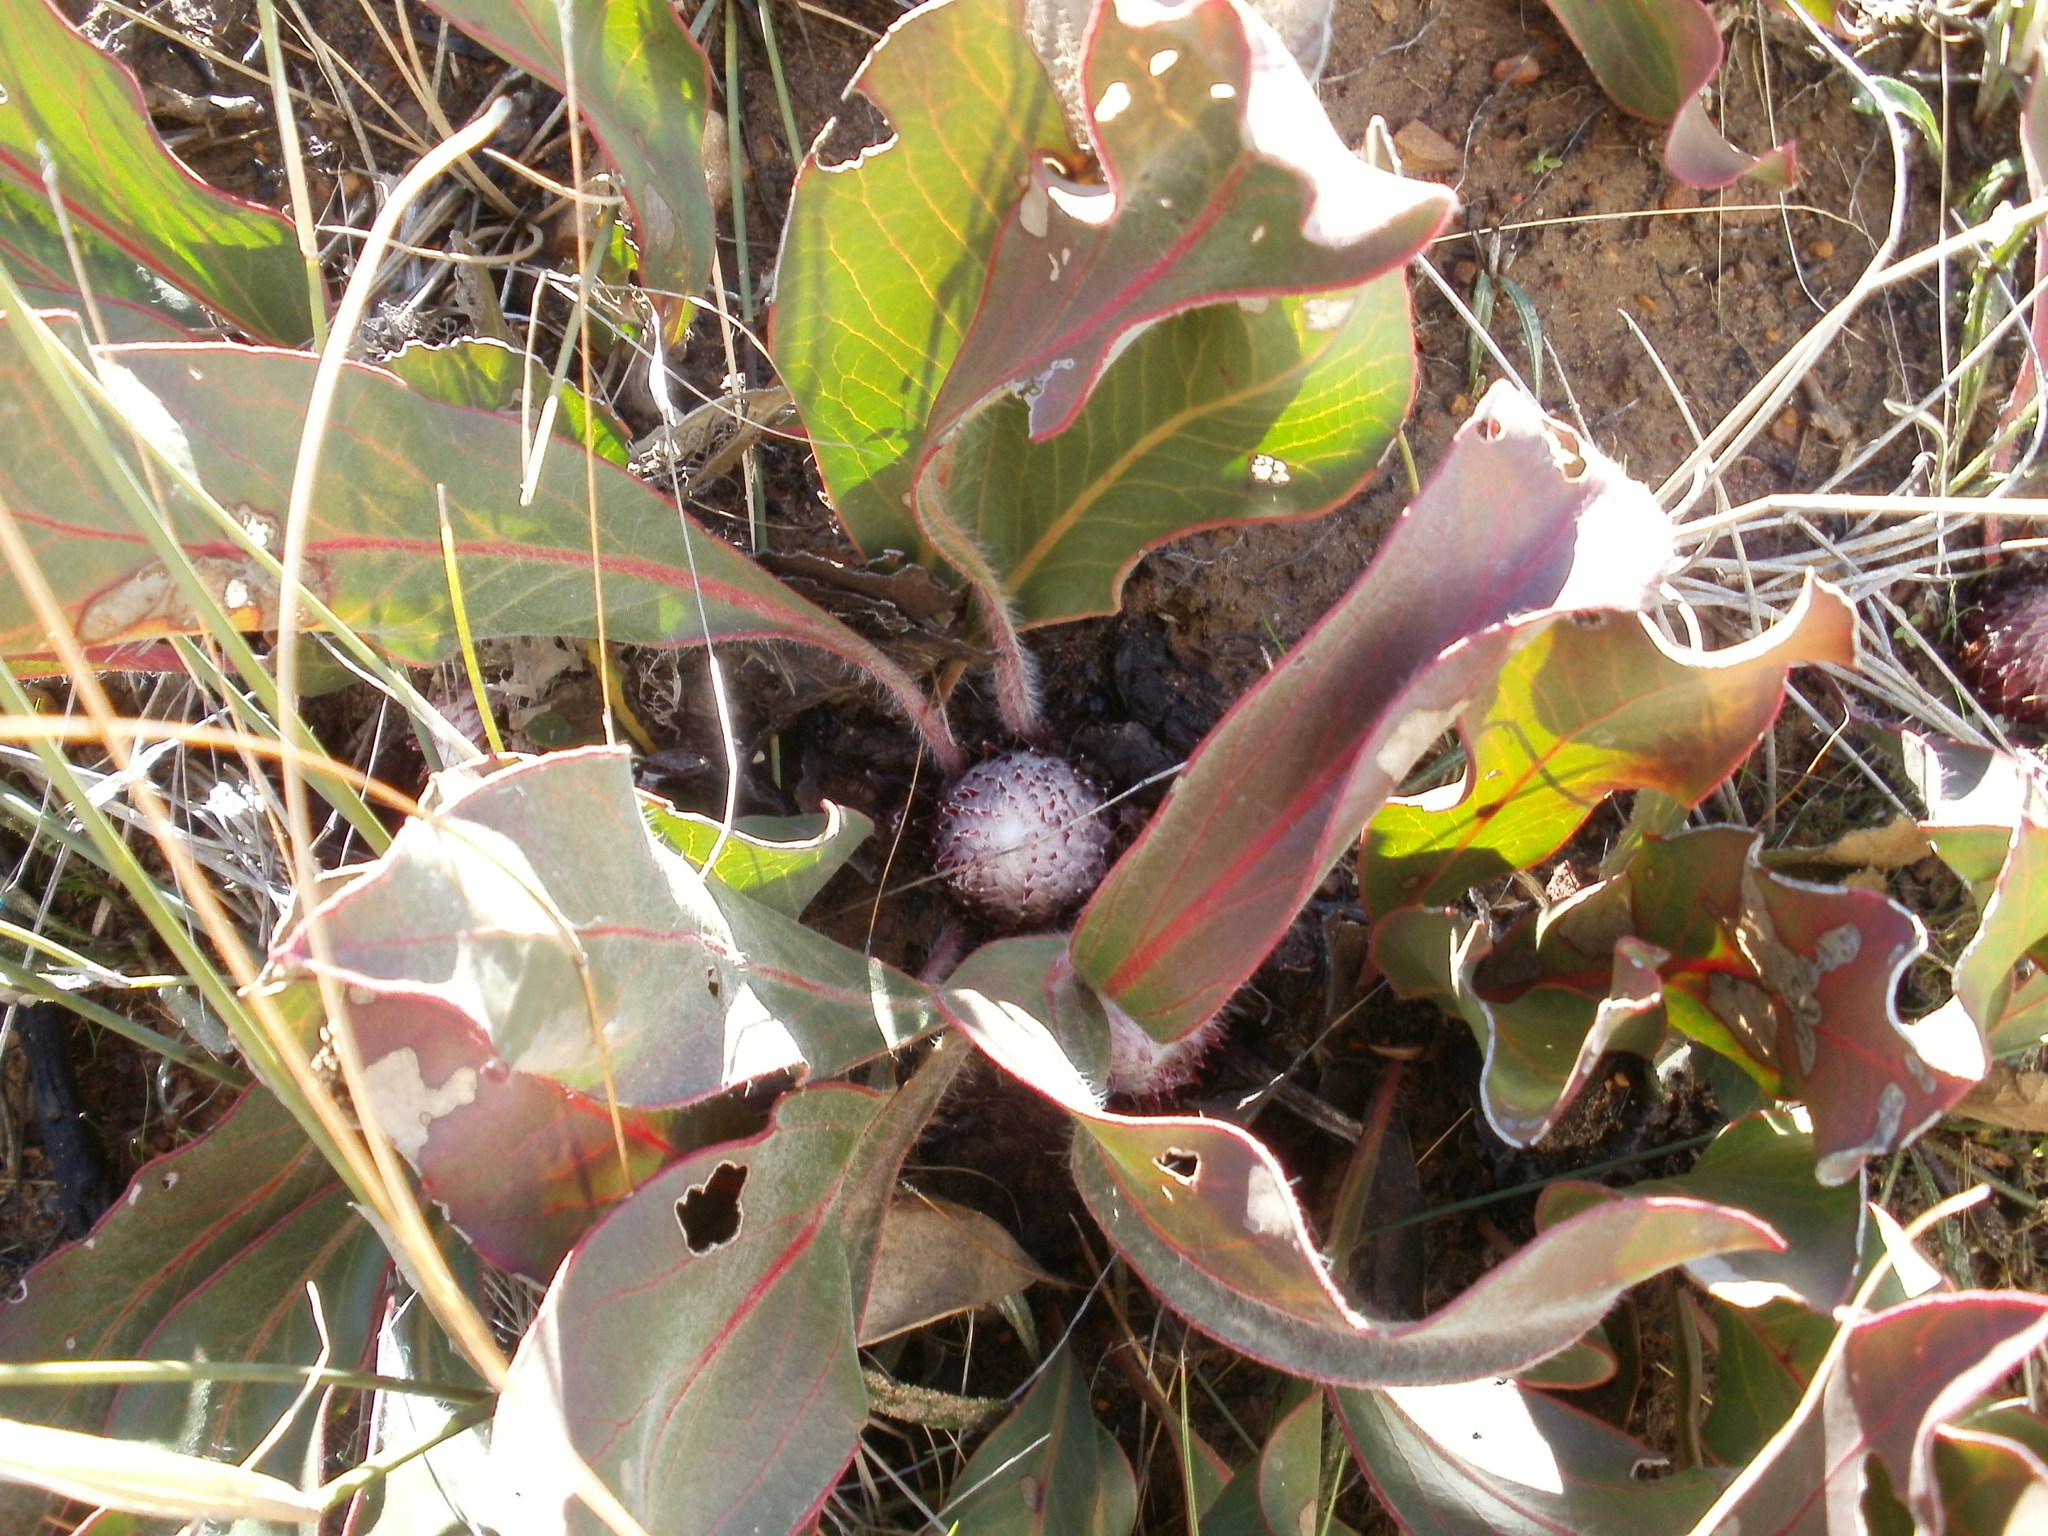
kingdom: Plantae
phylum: Tracheophyta
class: Magnoliopsida
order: Proteales
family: Proteaceae
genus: Protea
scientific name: Protea scolopendriifolia
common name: Harts-tongue-fern sugarbush
